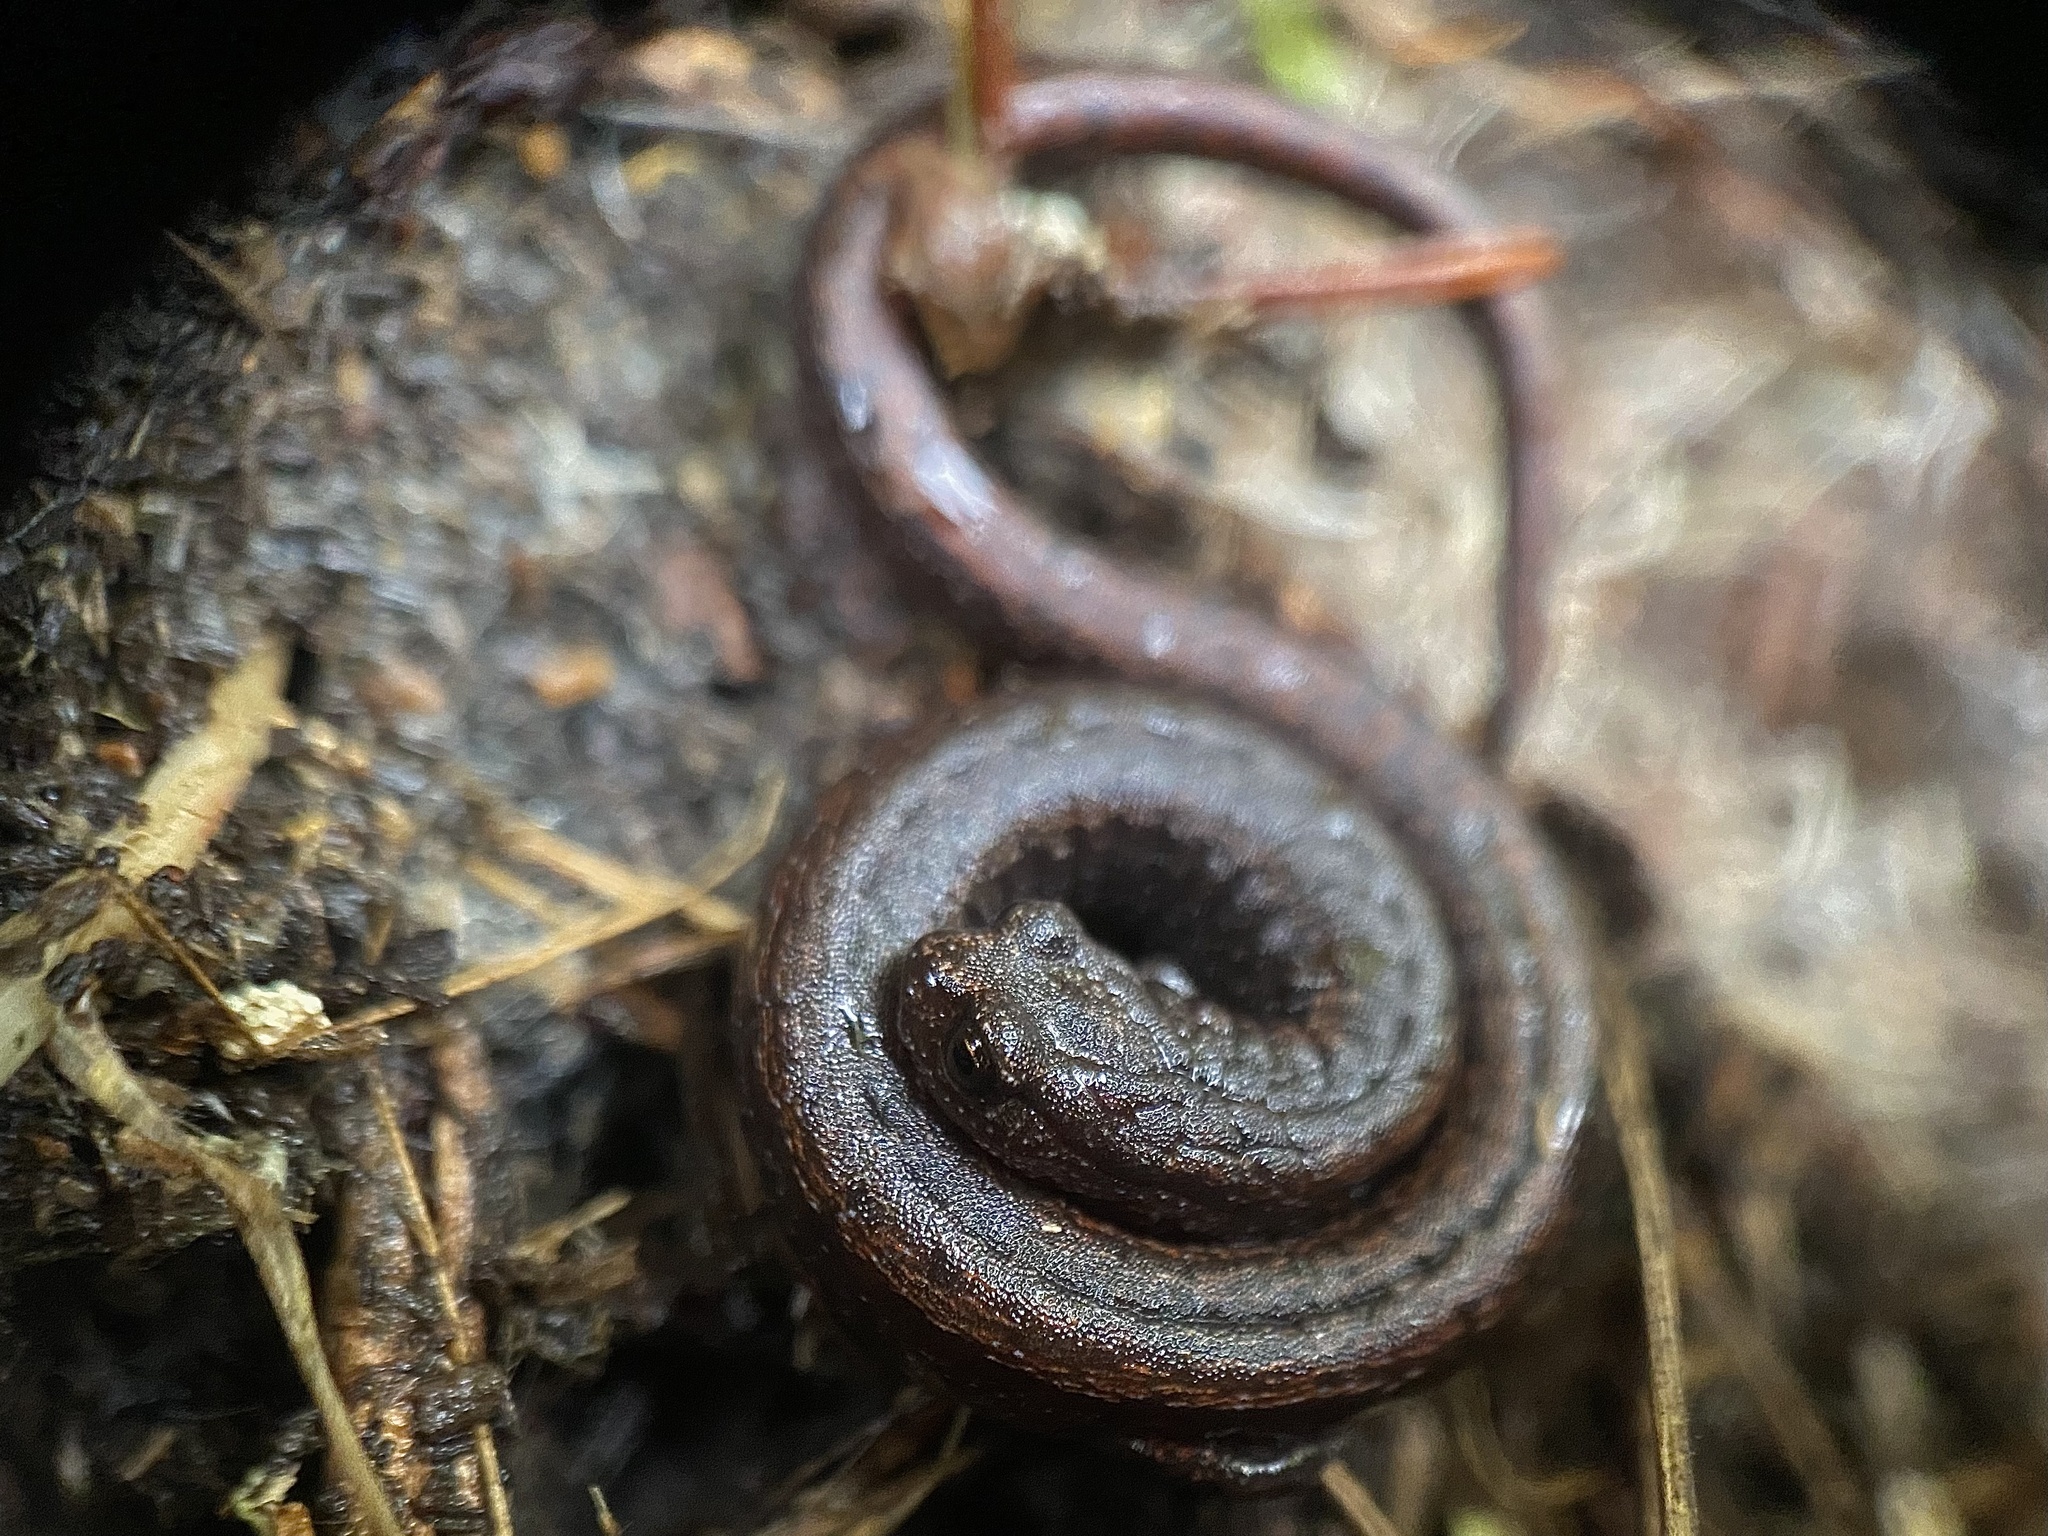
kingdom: Animalia
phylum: Chordata
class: Amphibia
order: Caudata
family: Plethodontidae
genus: Batrachoseps
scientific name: Batrachoseps attenuatus
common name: California slender salamander
